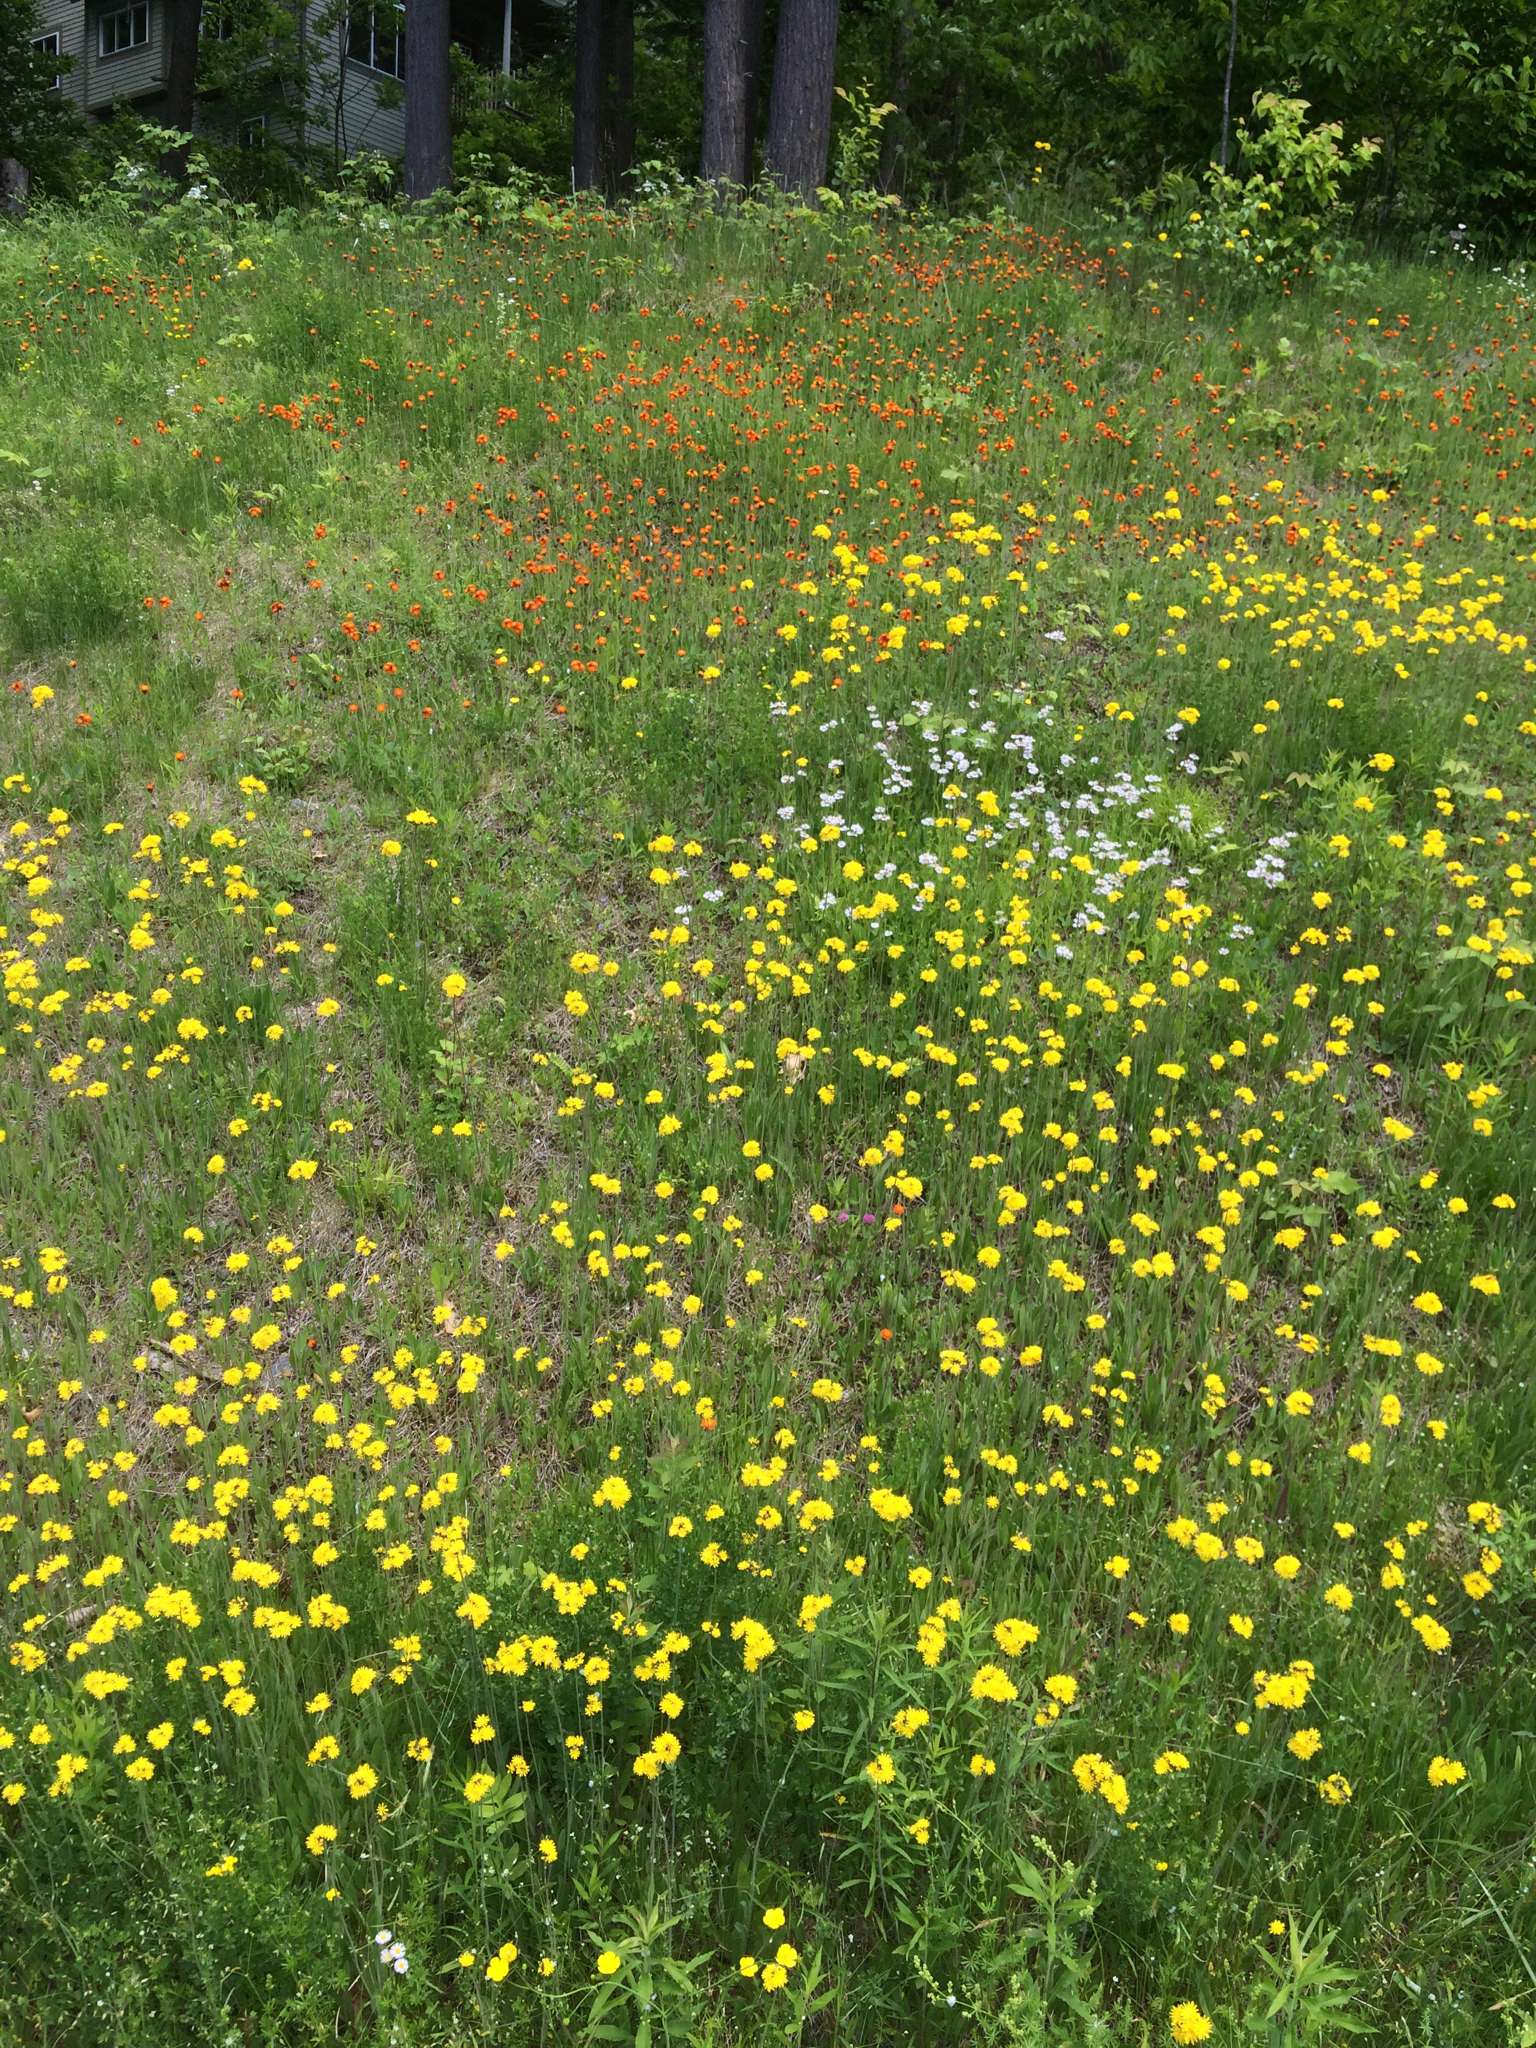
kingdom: Plantae
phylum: Tracheophyta
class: Magnoliopsida
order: Asterales
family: Asteraceae
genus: Pilosella
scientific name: Pilosella caespitosa
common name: Yellow fox-and-cubs
